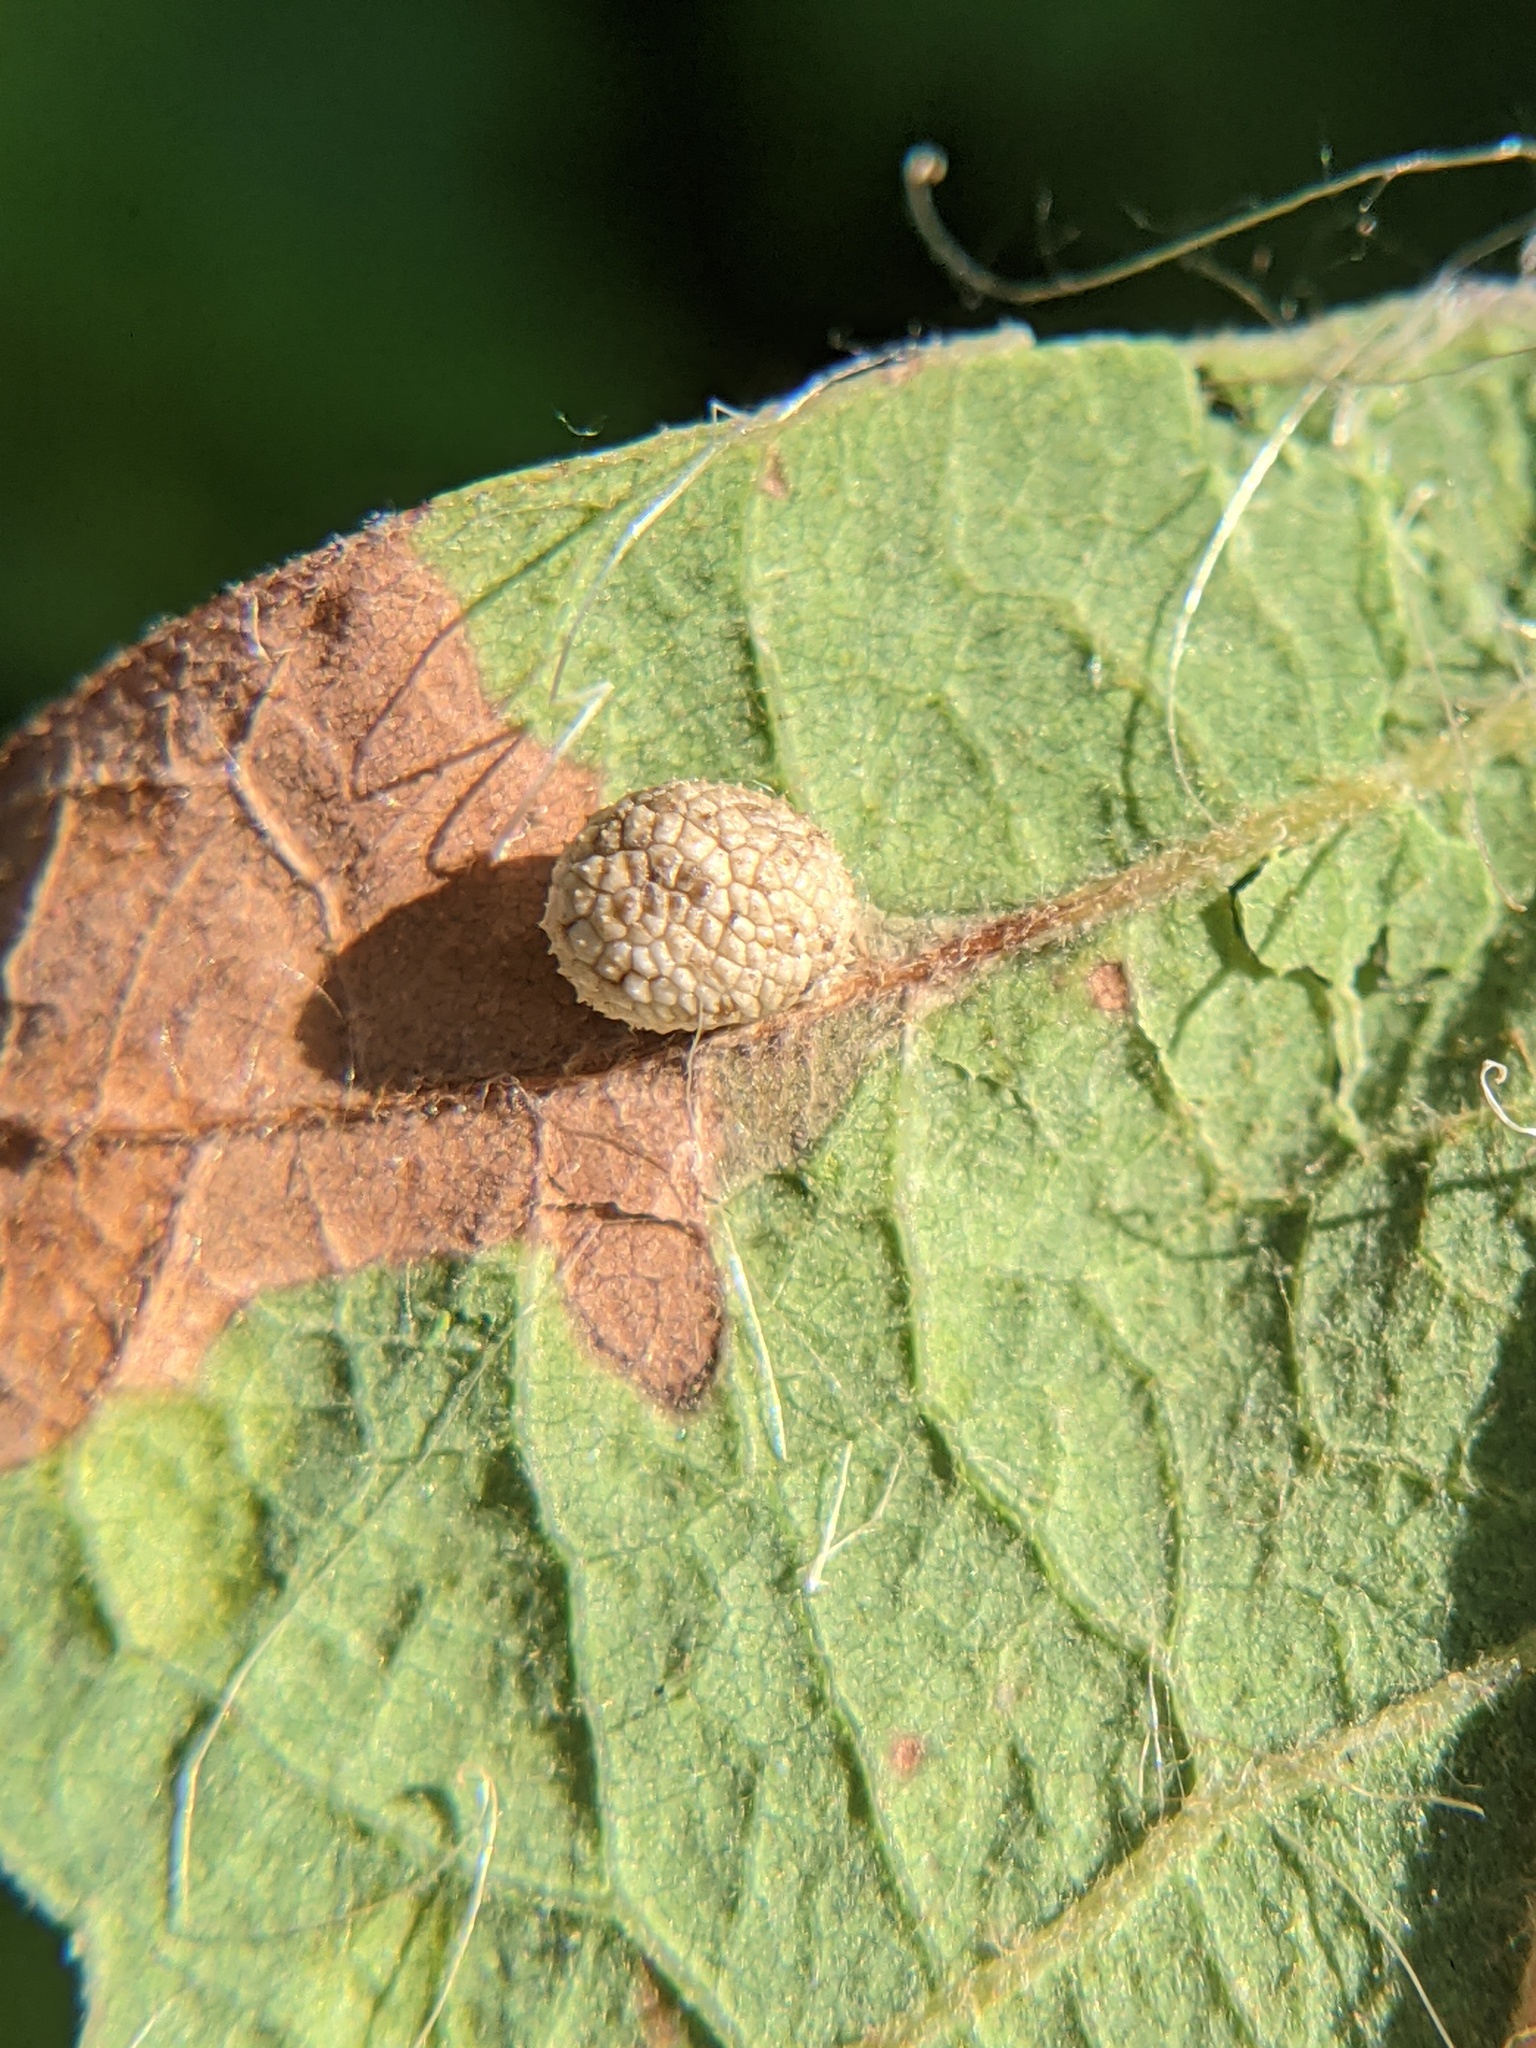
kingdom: Animalia
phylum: Arthropoda
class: Insecta
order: Hymenoptera
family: Cynipidae
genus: Acraspis
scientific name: Acraspis quercushirta
